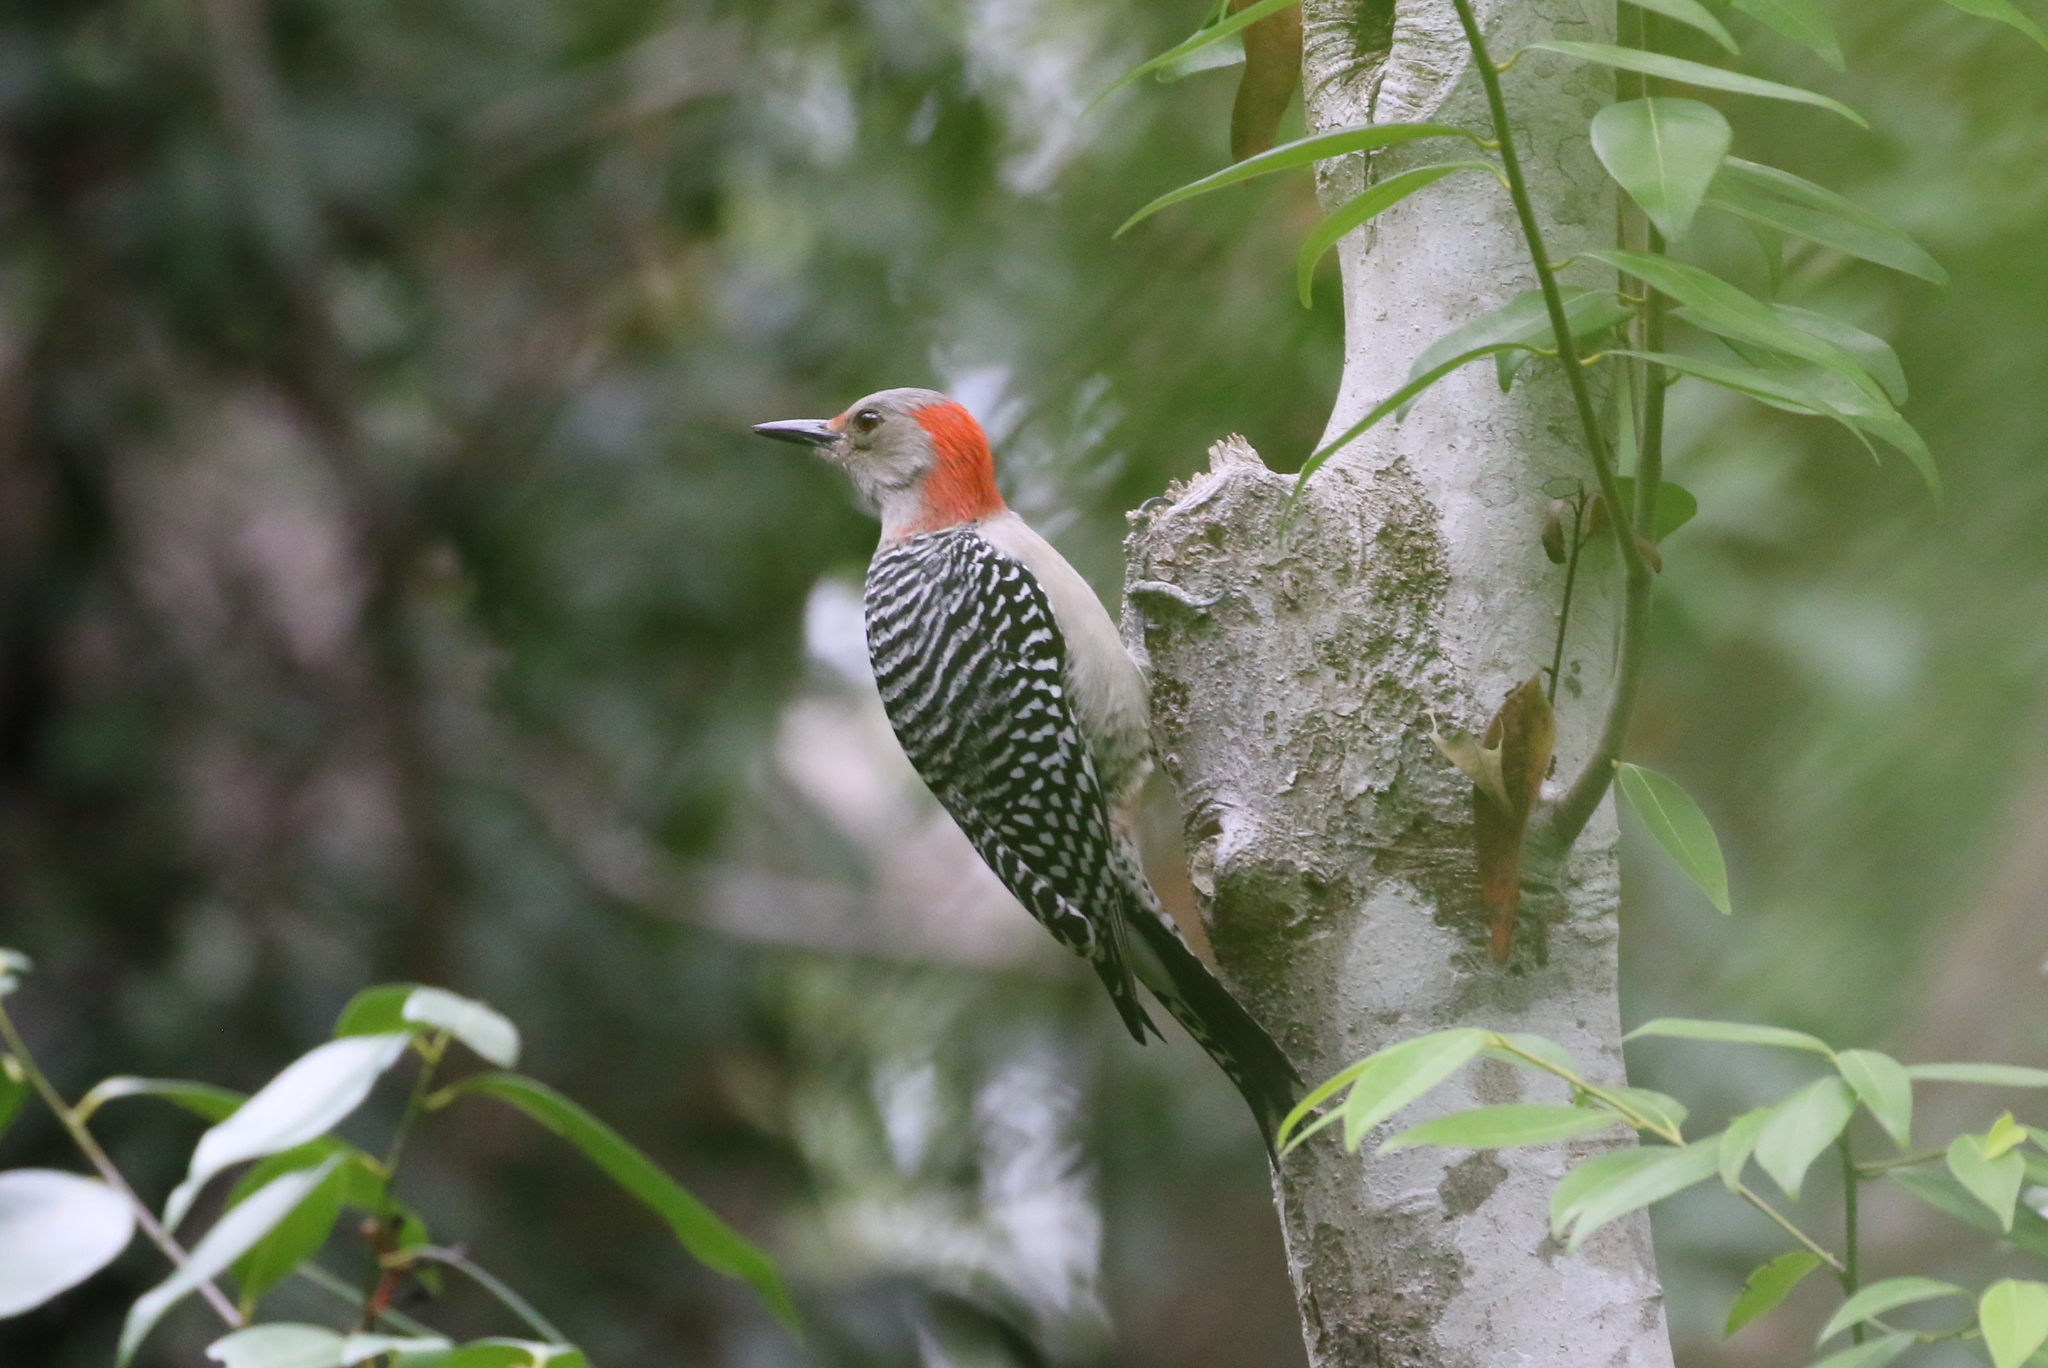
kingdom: Animalia
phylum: Chordata
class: Aves
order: Piciformes
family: Picidae
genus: Melanerpes
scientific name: Melanerpes carolinus
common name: Red-bellied woodpecker
